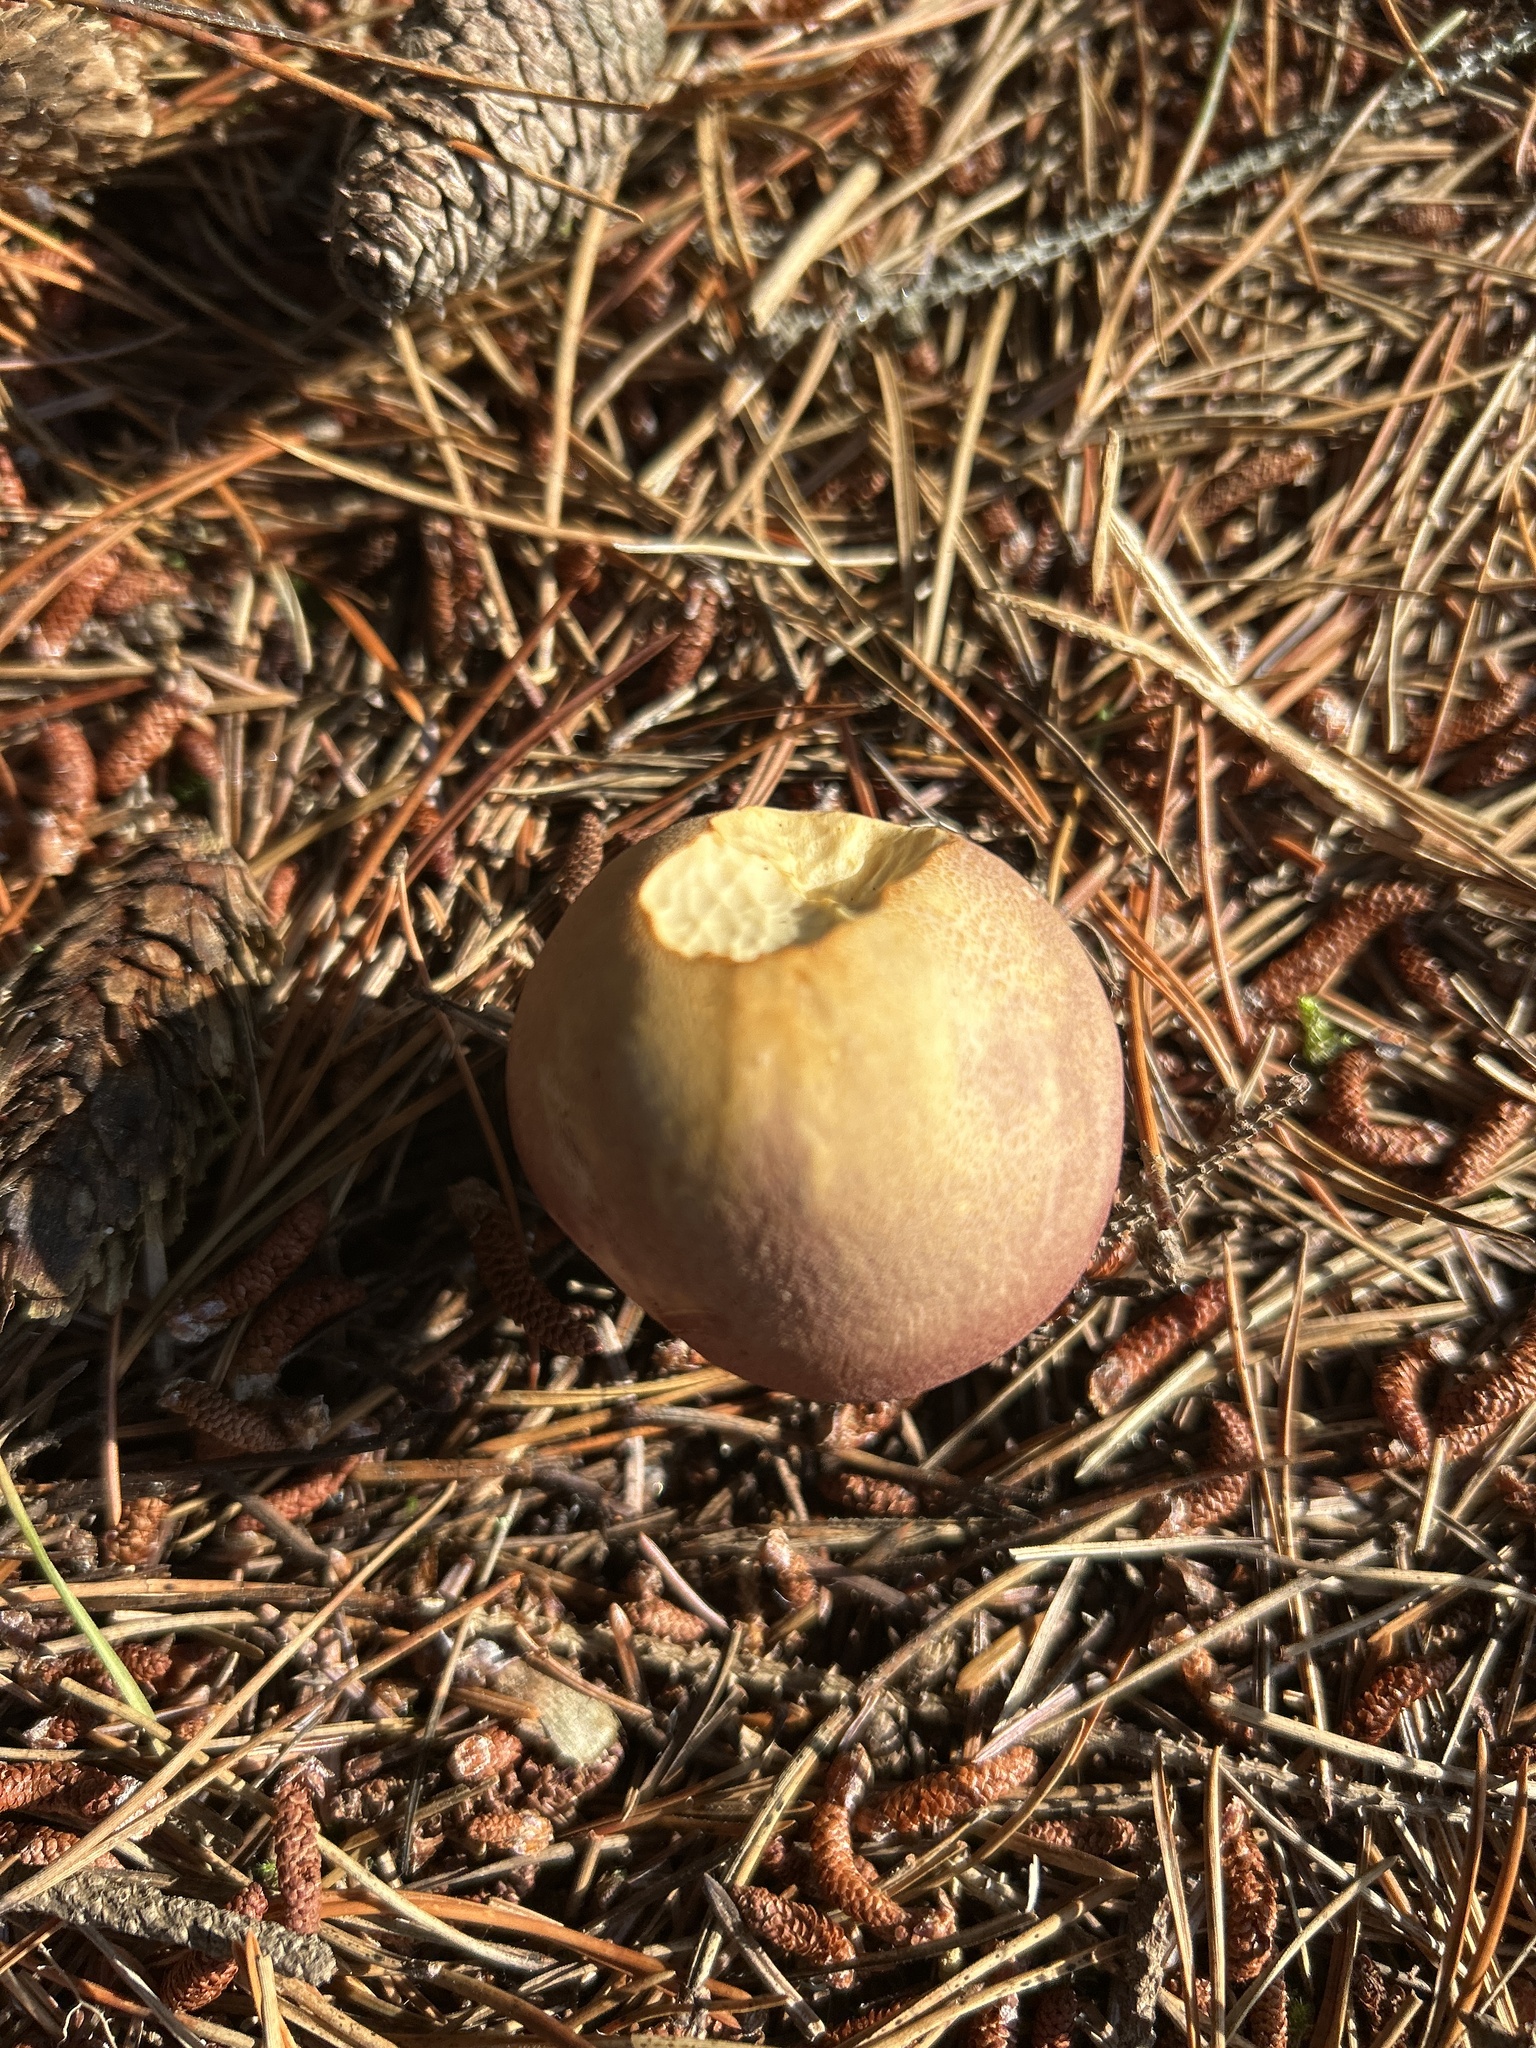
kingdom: Fungi
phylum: Basidiomycota
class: Agaricomycetes
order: Agaricales
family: Tricholomataceae
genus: Tricholomopsis
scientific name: Tricholomopsis rutilans
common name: Plums and custard
